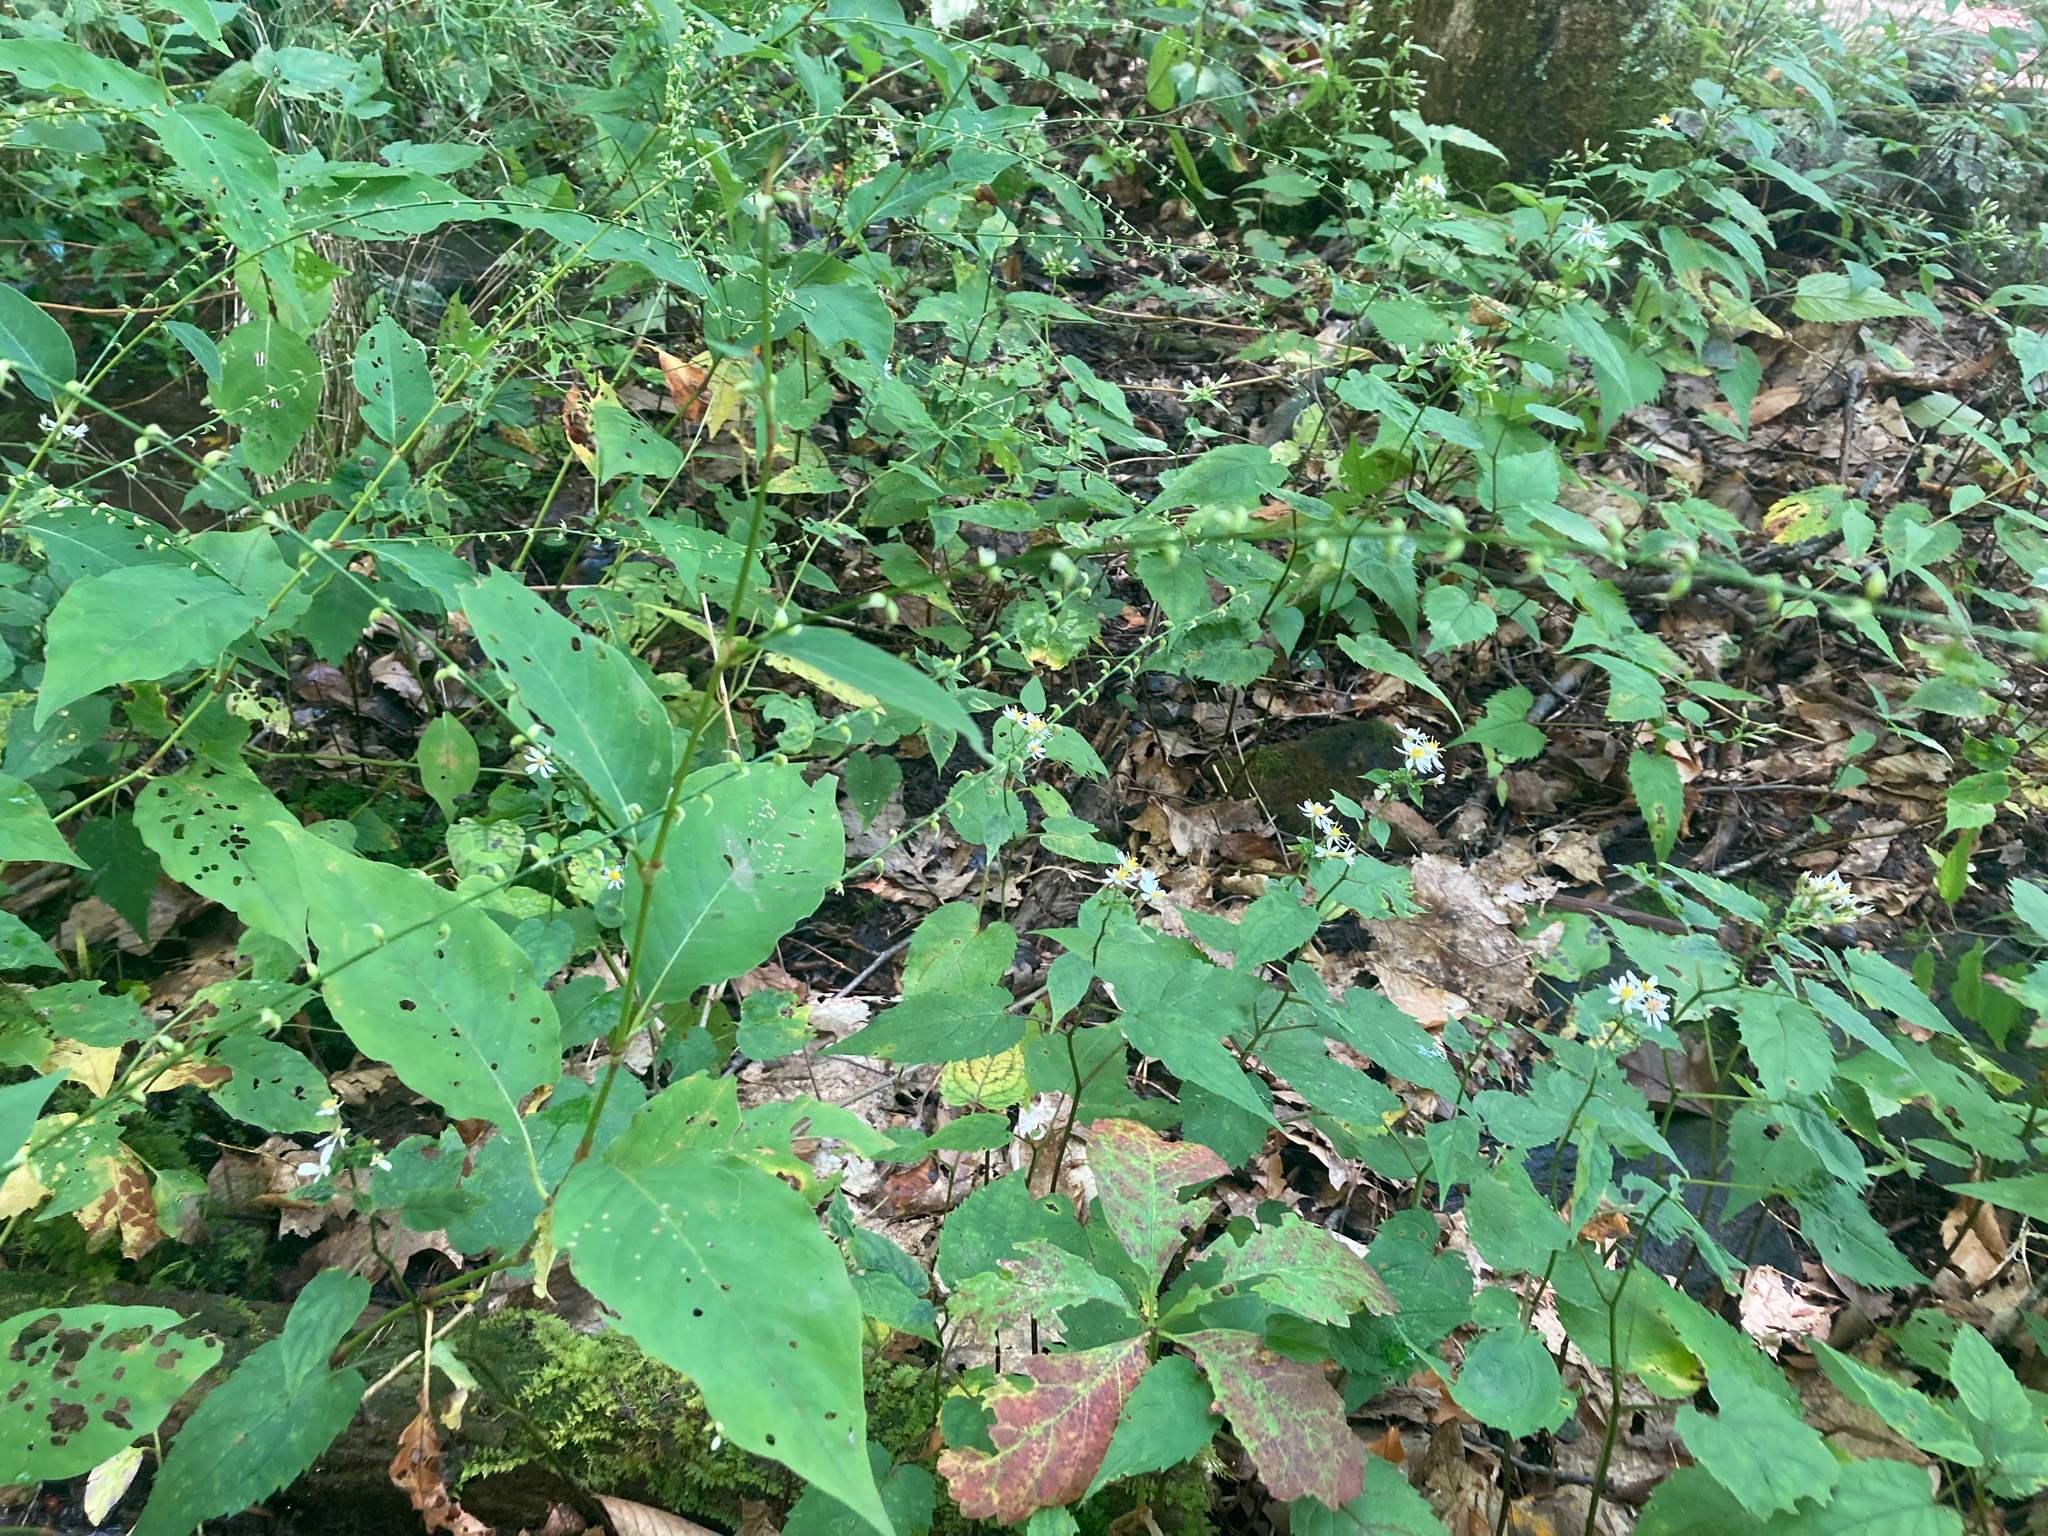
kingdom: Plantae
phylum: Tracheophyta
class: Magnoliopsida
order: Caryophyllales
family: Polygonaceae
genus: Persicaria
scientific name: Persicaria virginiana
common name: Jumpseed
